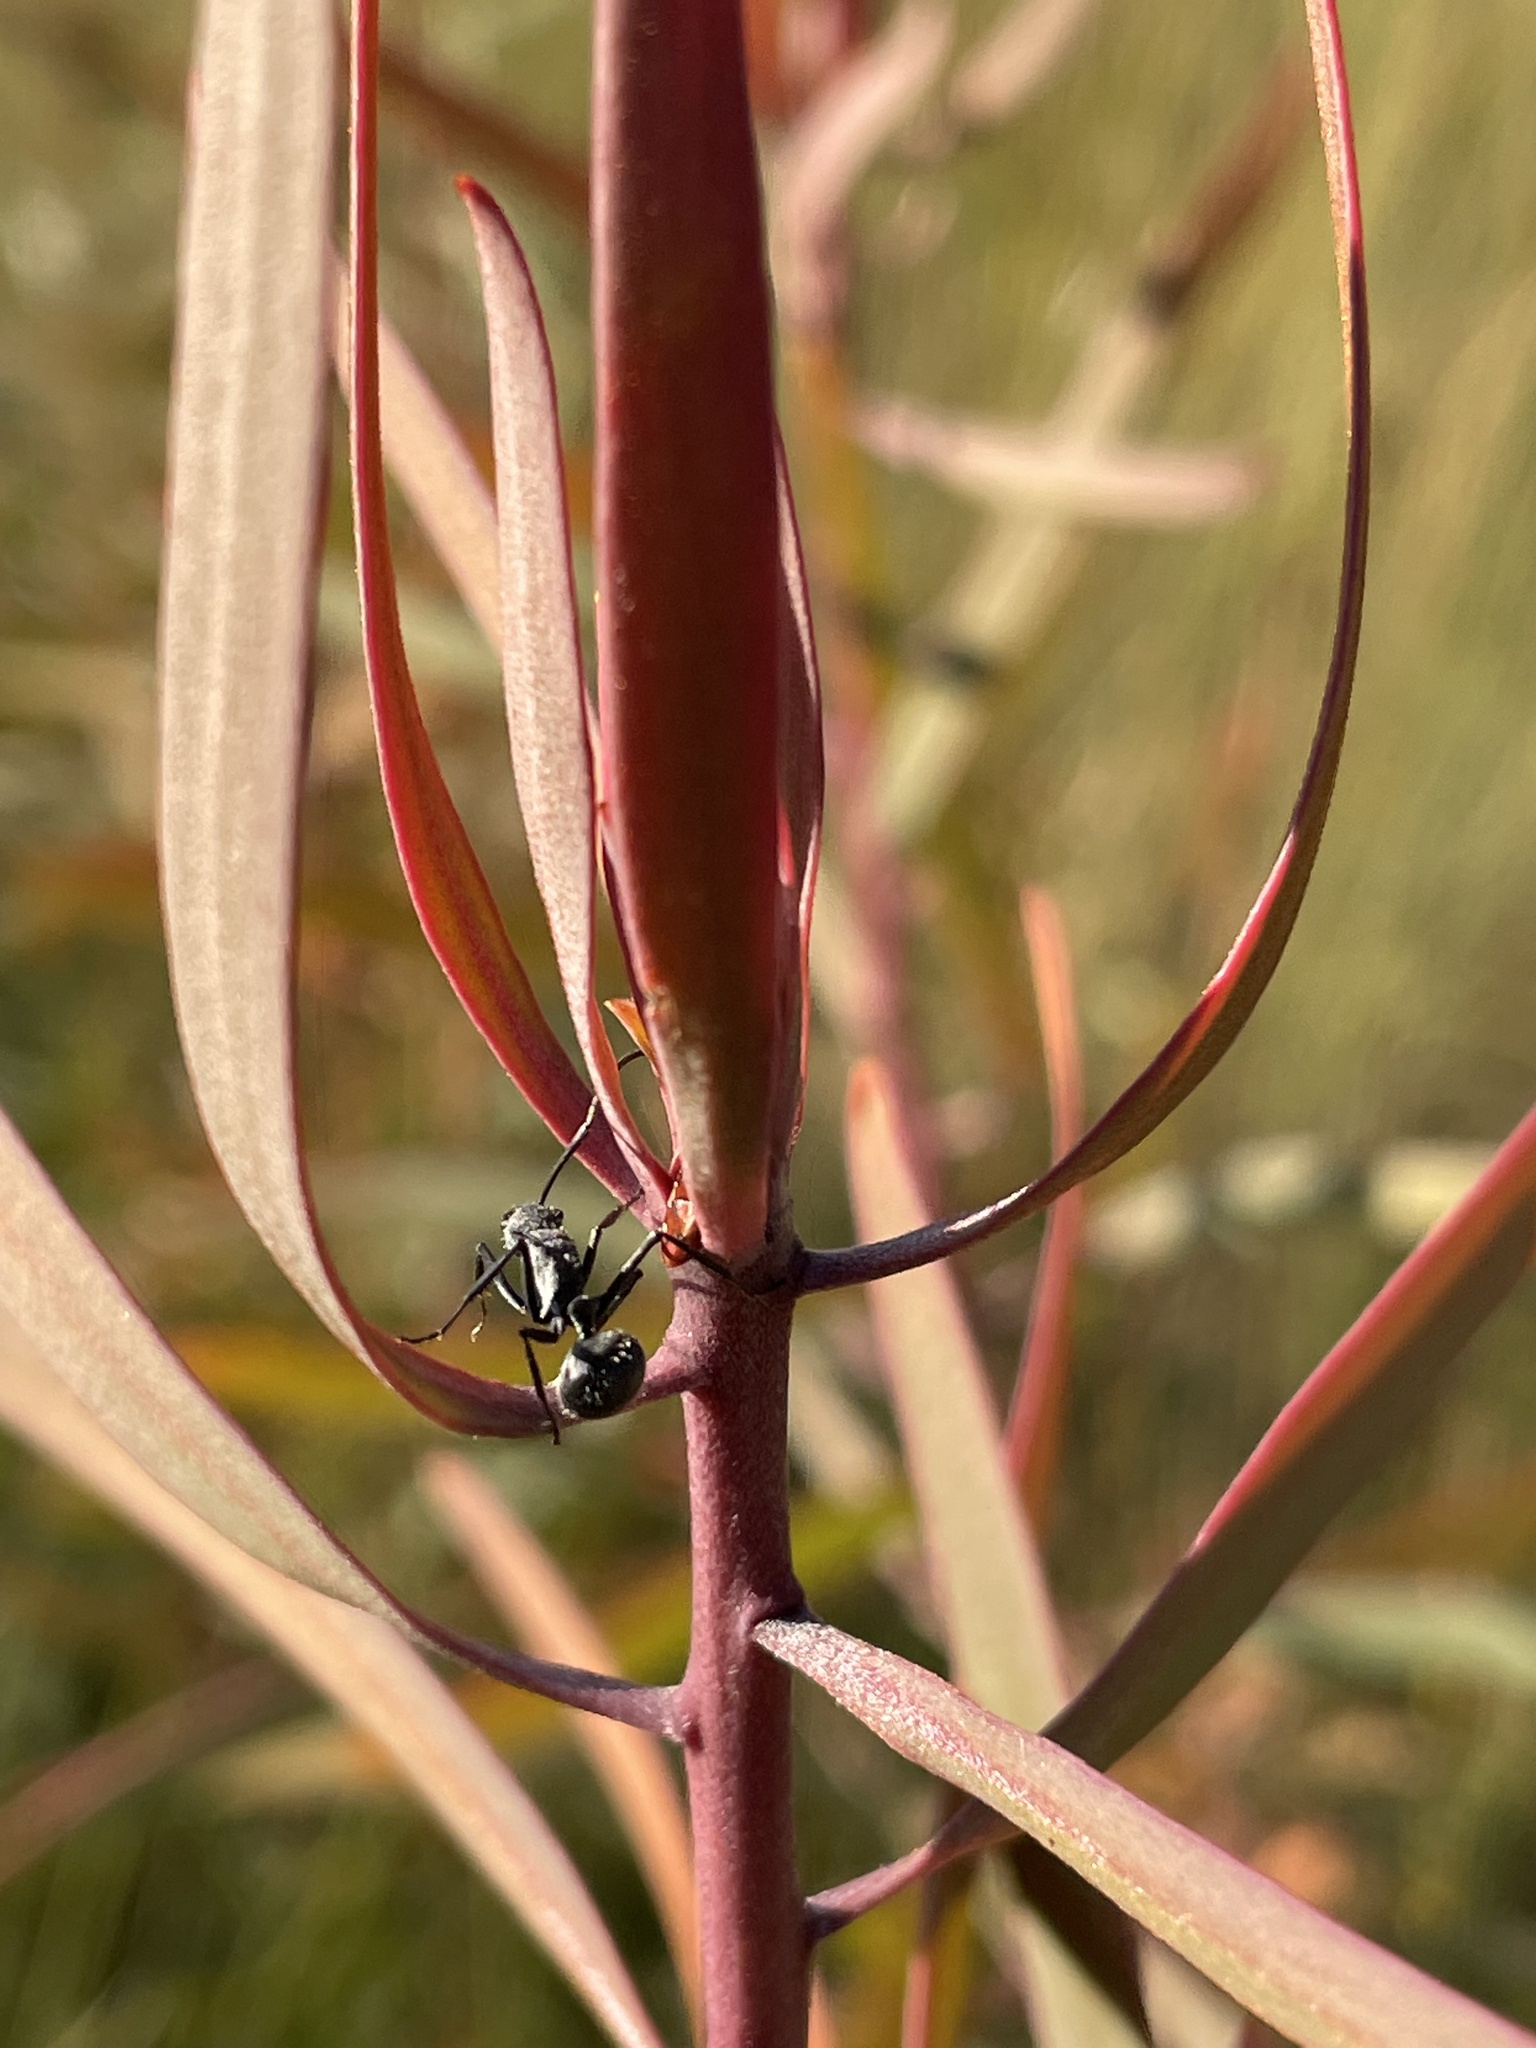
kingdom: Animalia
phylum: Arthropoda
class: Insecta
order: Hymenoptera
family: Formicidae
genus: Polyrhachis
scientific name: Polyrhachis schistacea
